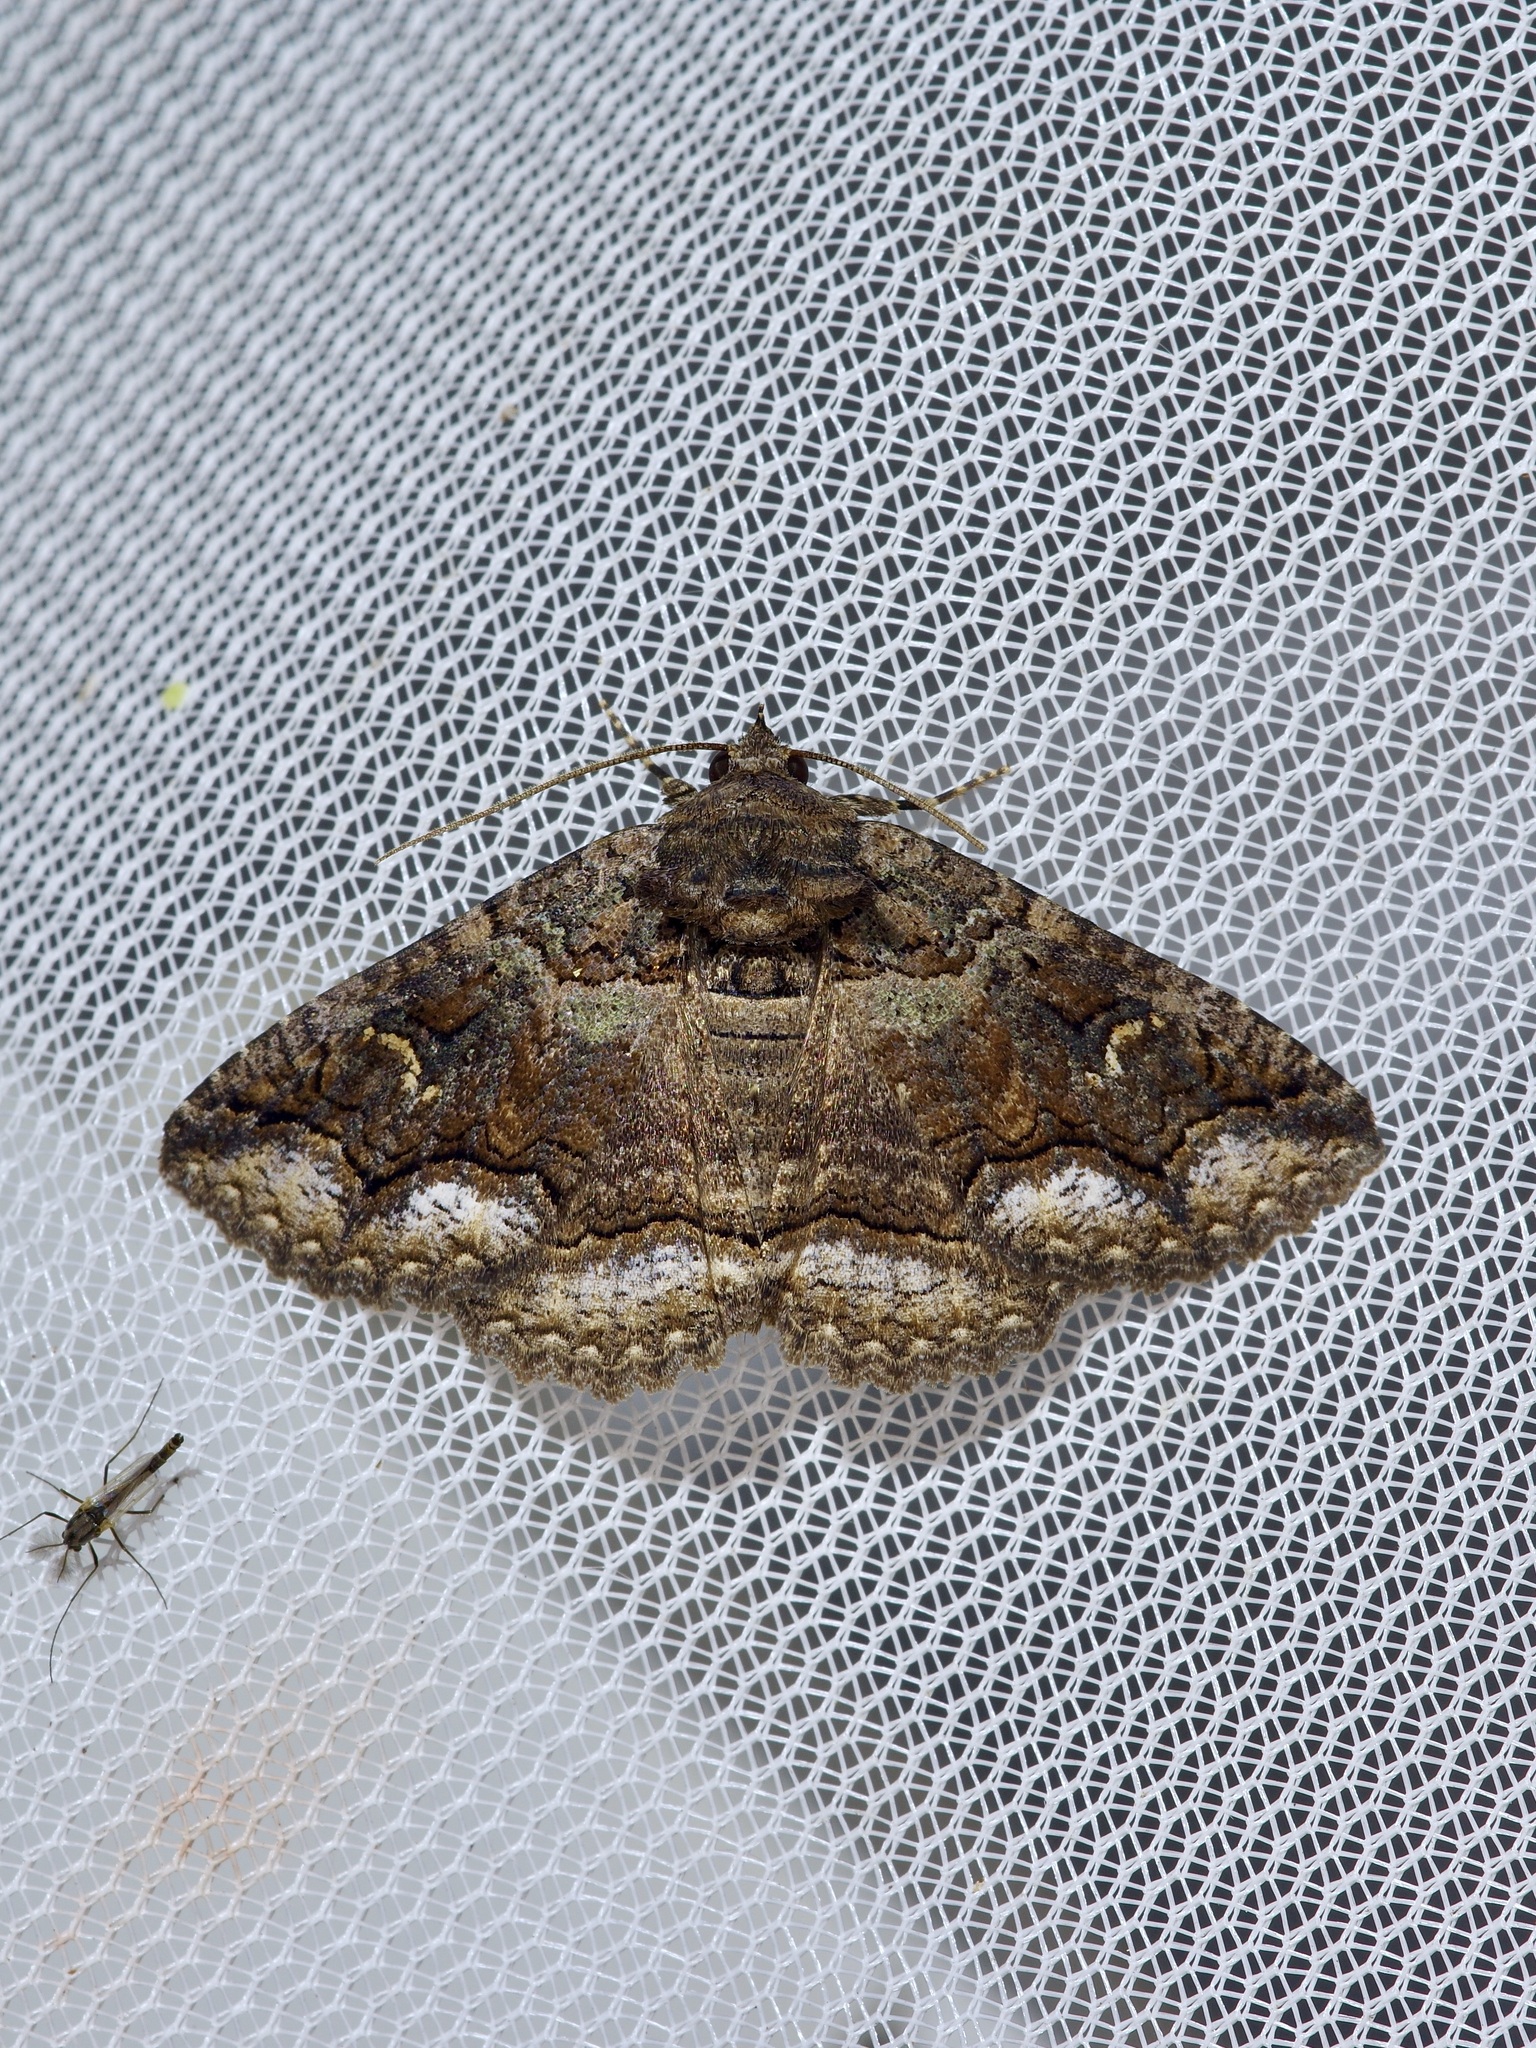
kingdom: Animalia
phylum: Arthropoda
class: Insecta
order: Lepidoptera
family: Erebidae
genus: Zale
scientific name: Zale edusina
